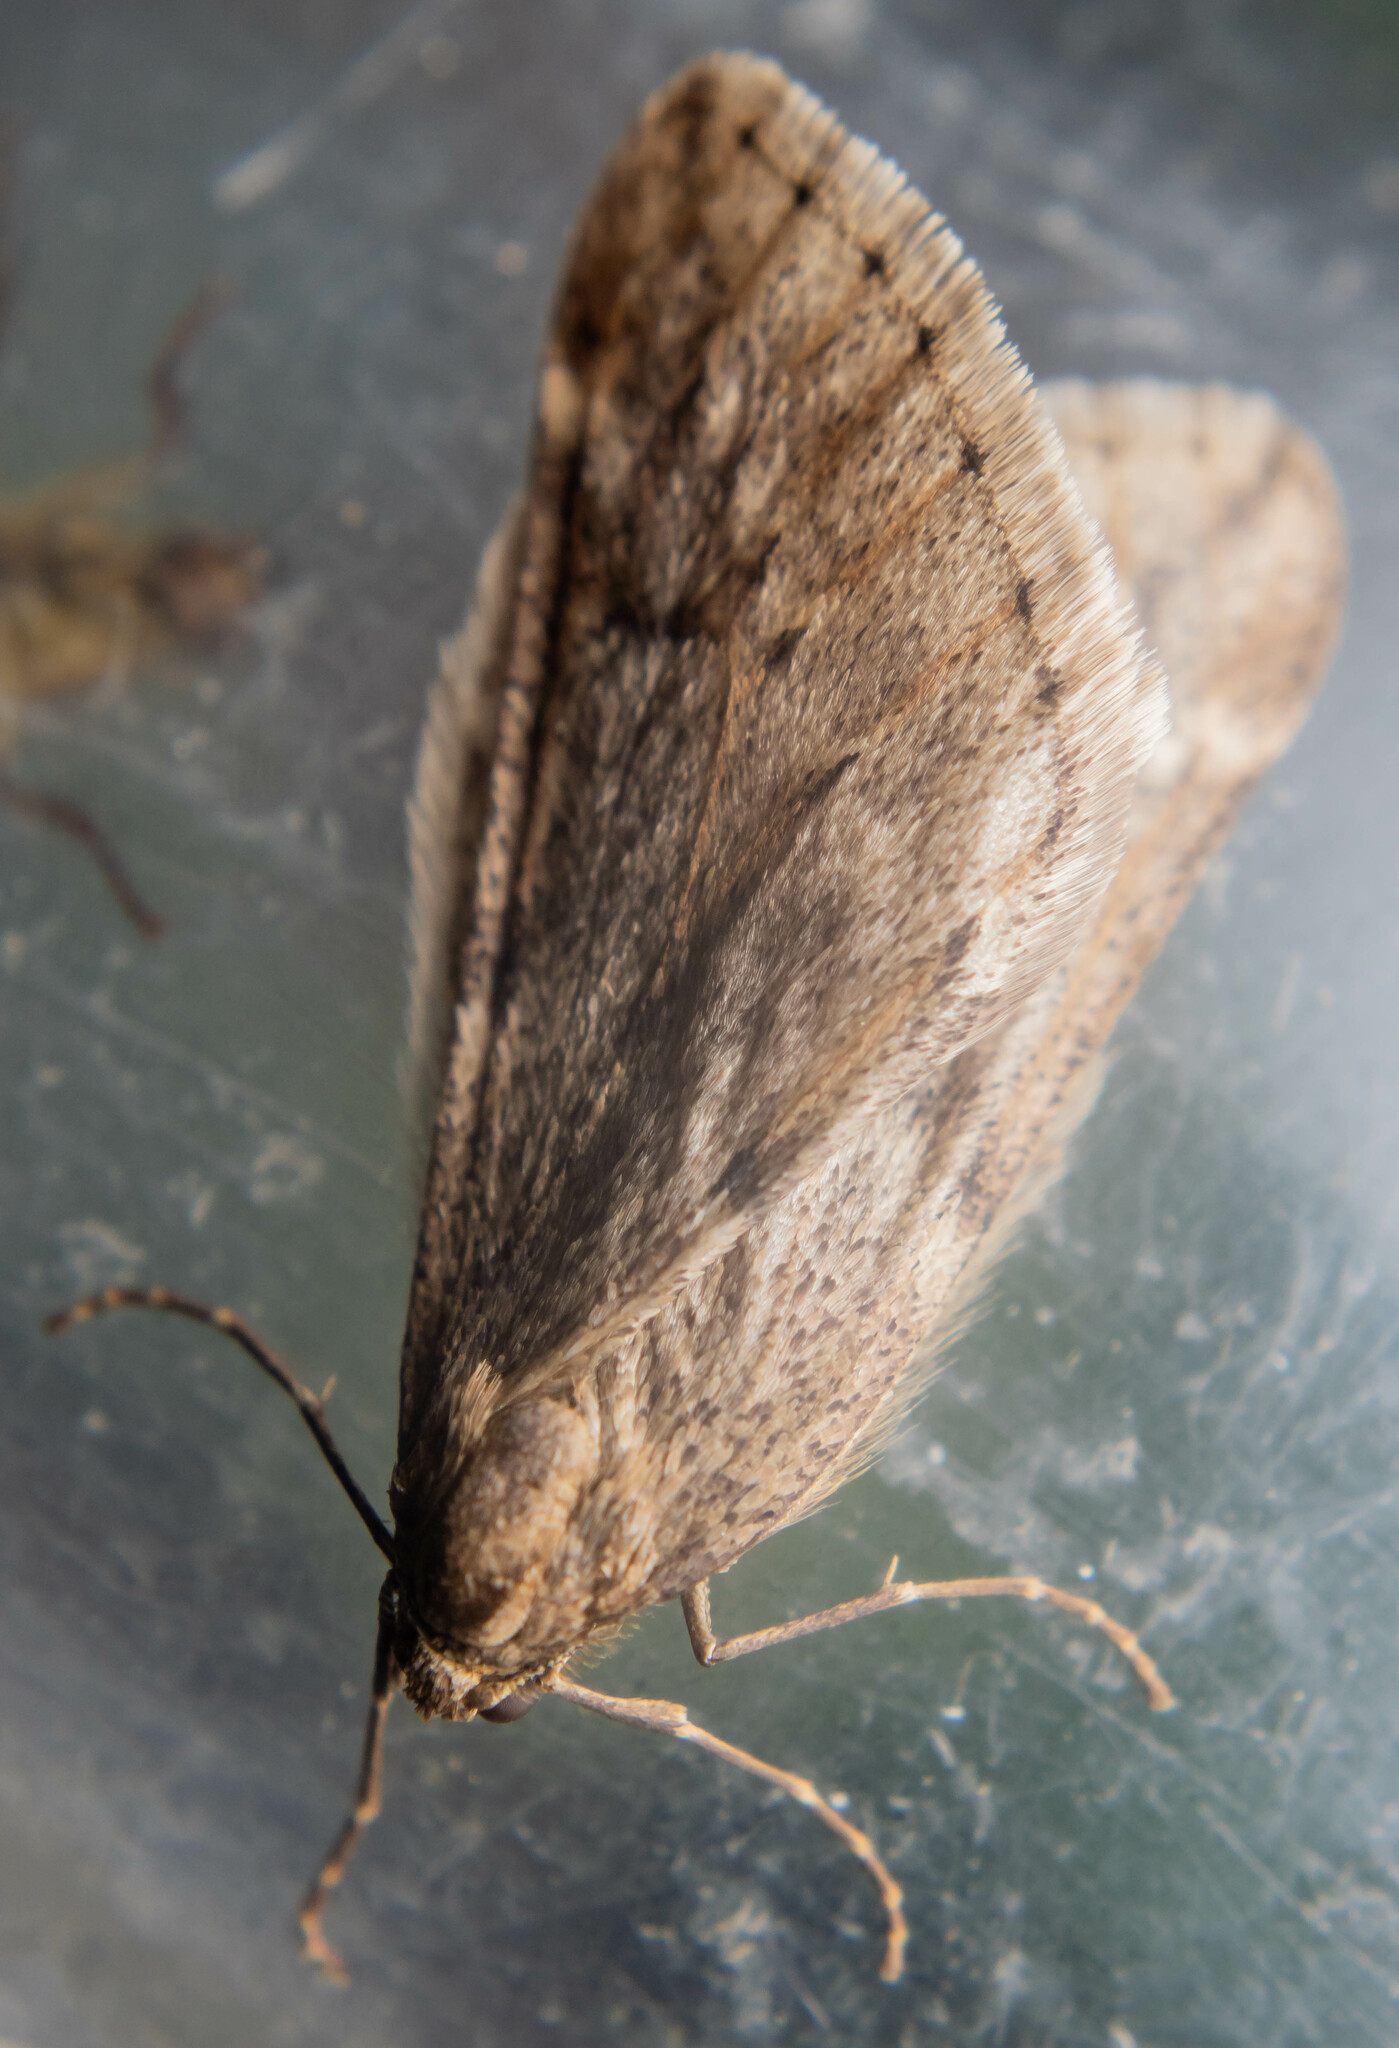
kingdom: Animalia
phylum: Arthropoda
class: Insecta
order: Lepidoptera
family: Geometridae
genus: Alsophila
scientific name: Alsophila aescularia
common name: March moth
